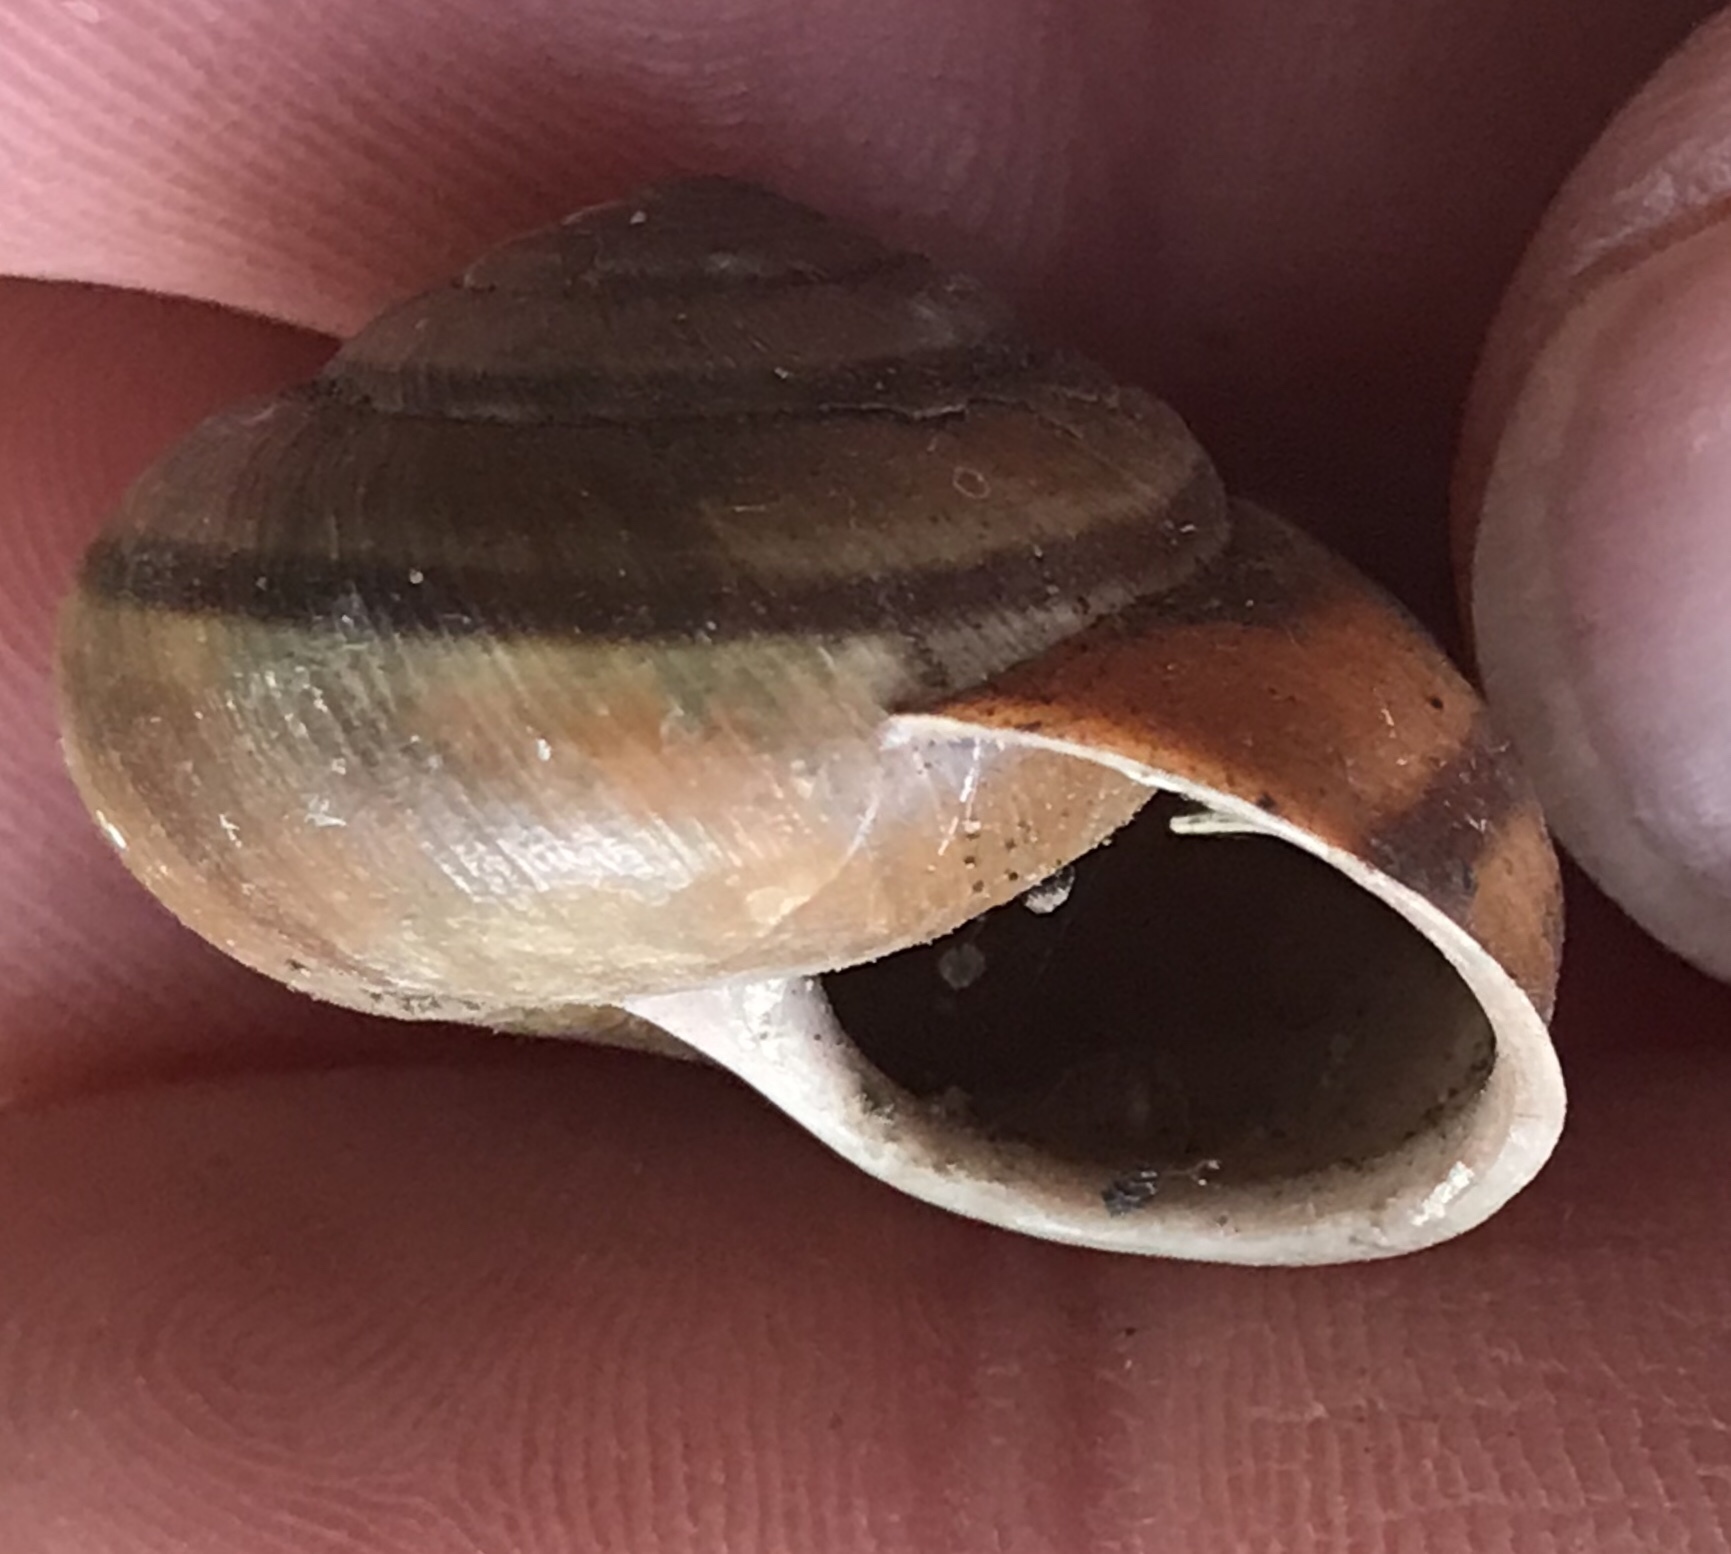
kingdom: Animalia
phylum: Mollusca
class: Gastropoda
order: Stylommatophora
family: Xanthonychidae
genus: Helminthoglypta
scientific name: Helminthoglypta umbilicata
